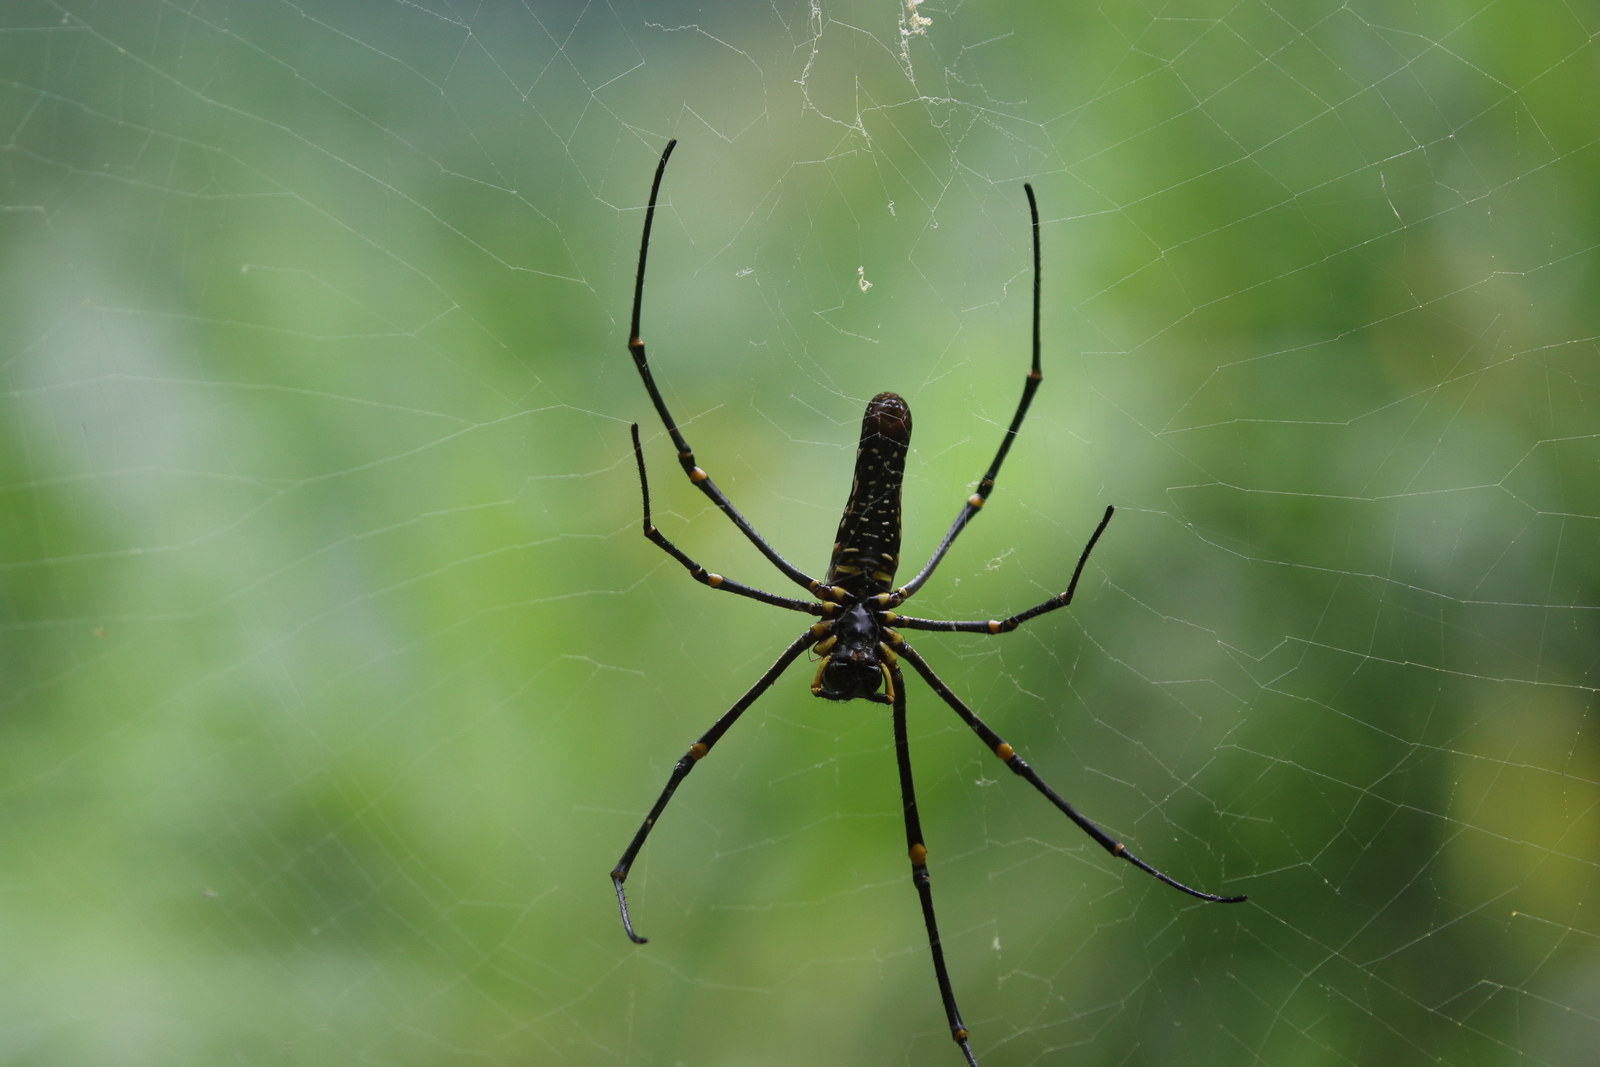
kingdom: Animalia
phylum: Arthropoda
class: Arachnida
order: Araneae
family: Araneidae
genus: Nephila
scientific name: Nephila pilipes
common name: Giant golden orb weaver
